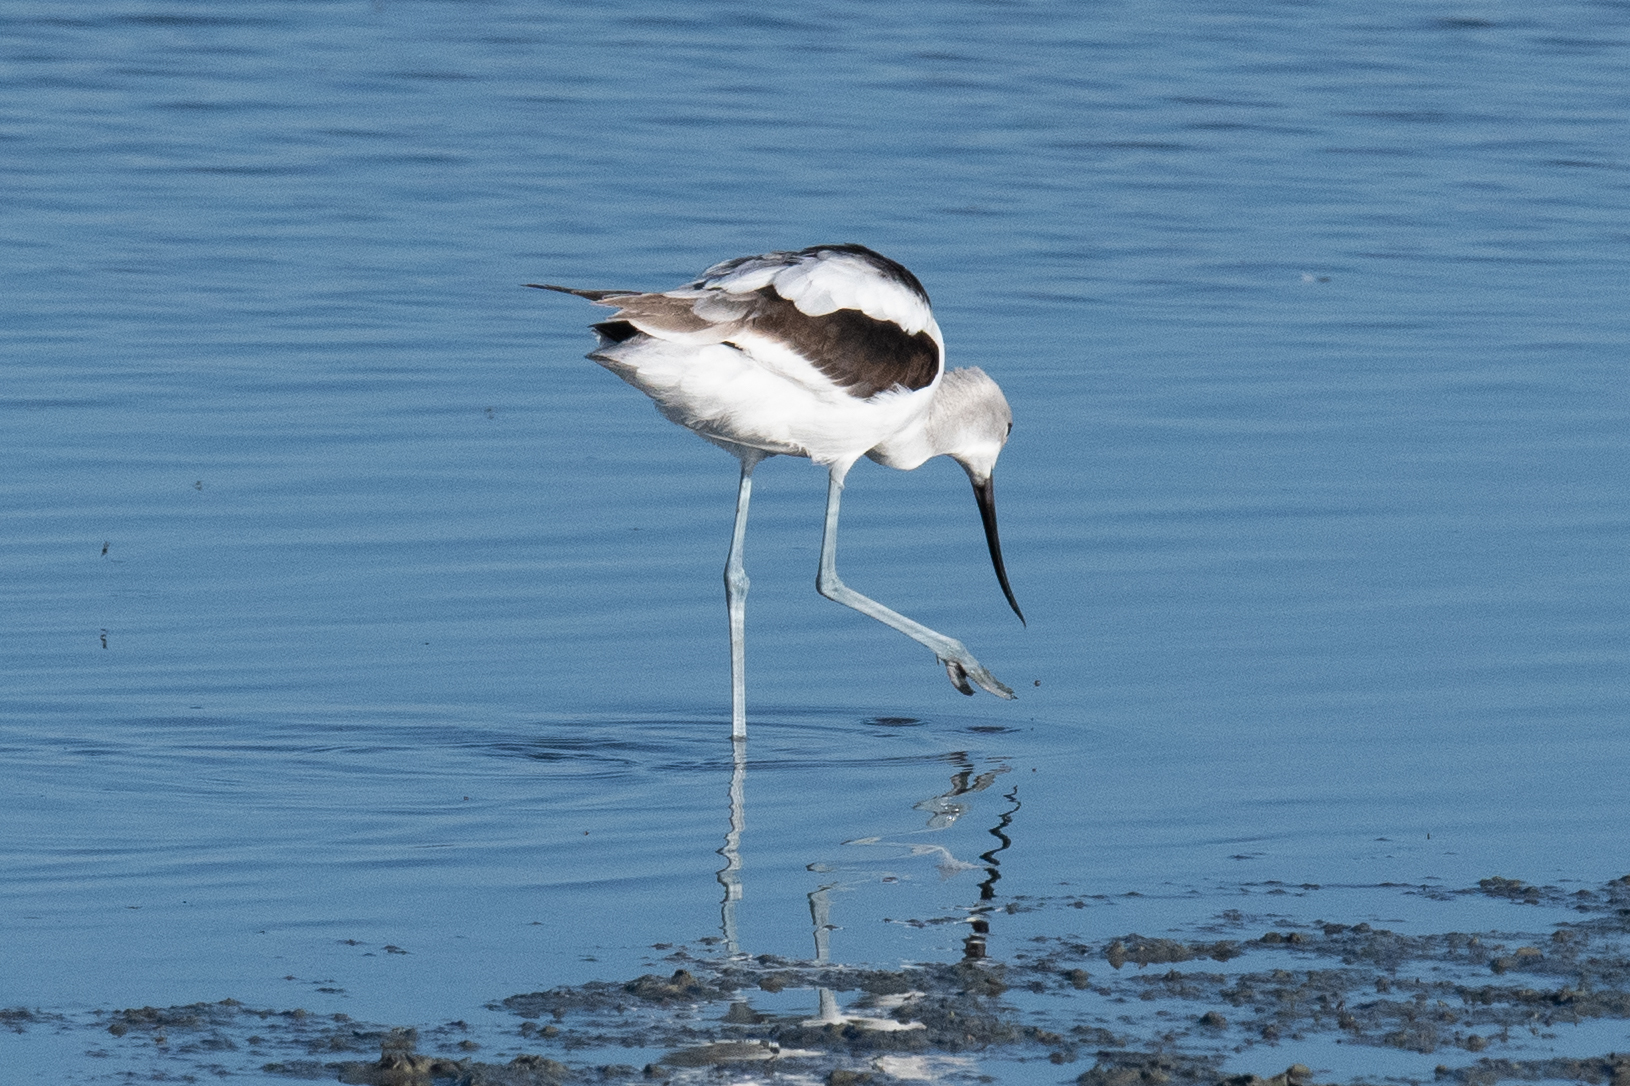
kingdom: Animalia
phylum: Chordata
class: Aves
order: Charadriiformes
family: Recurvirostridae
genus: Recurvirostra
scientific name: Recurvirostra americana
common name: American avocet
